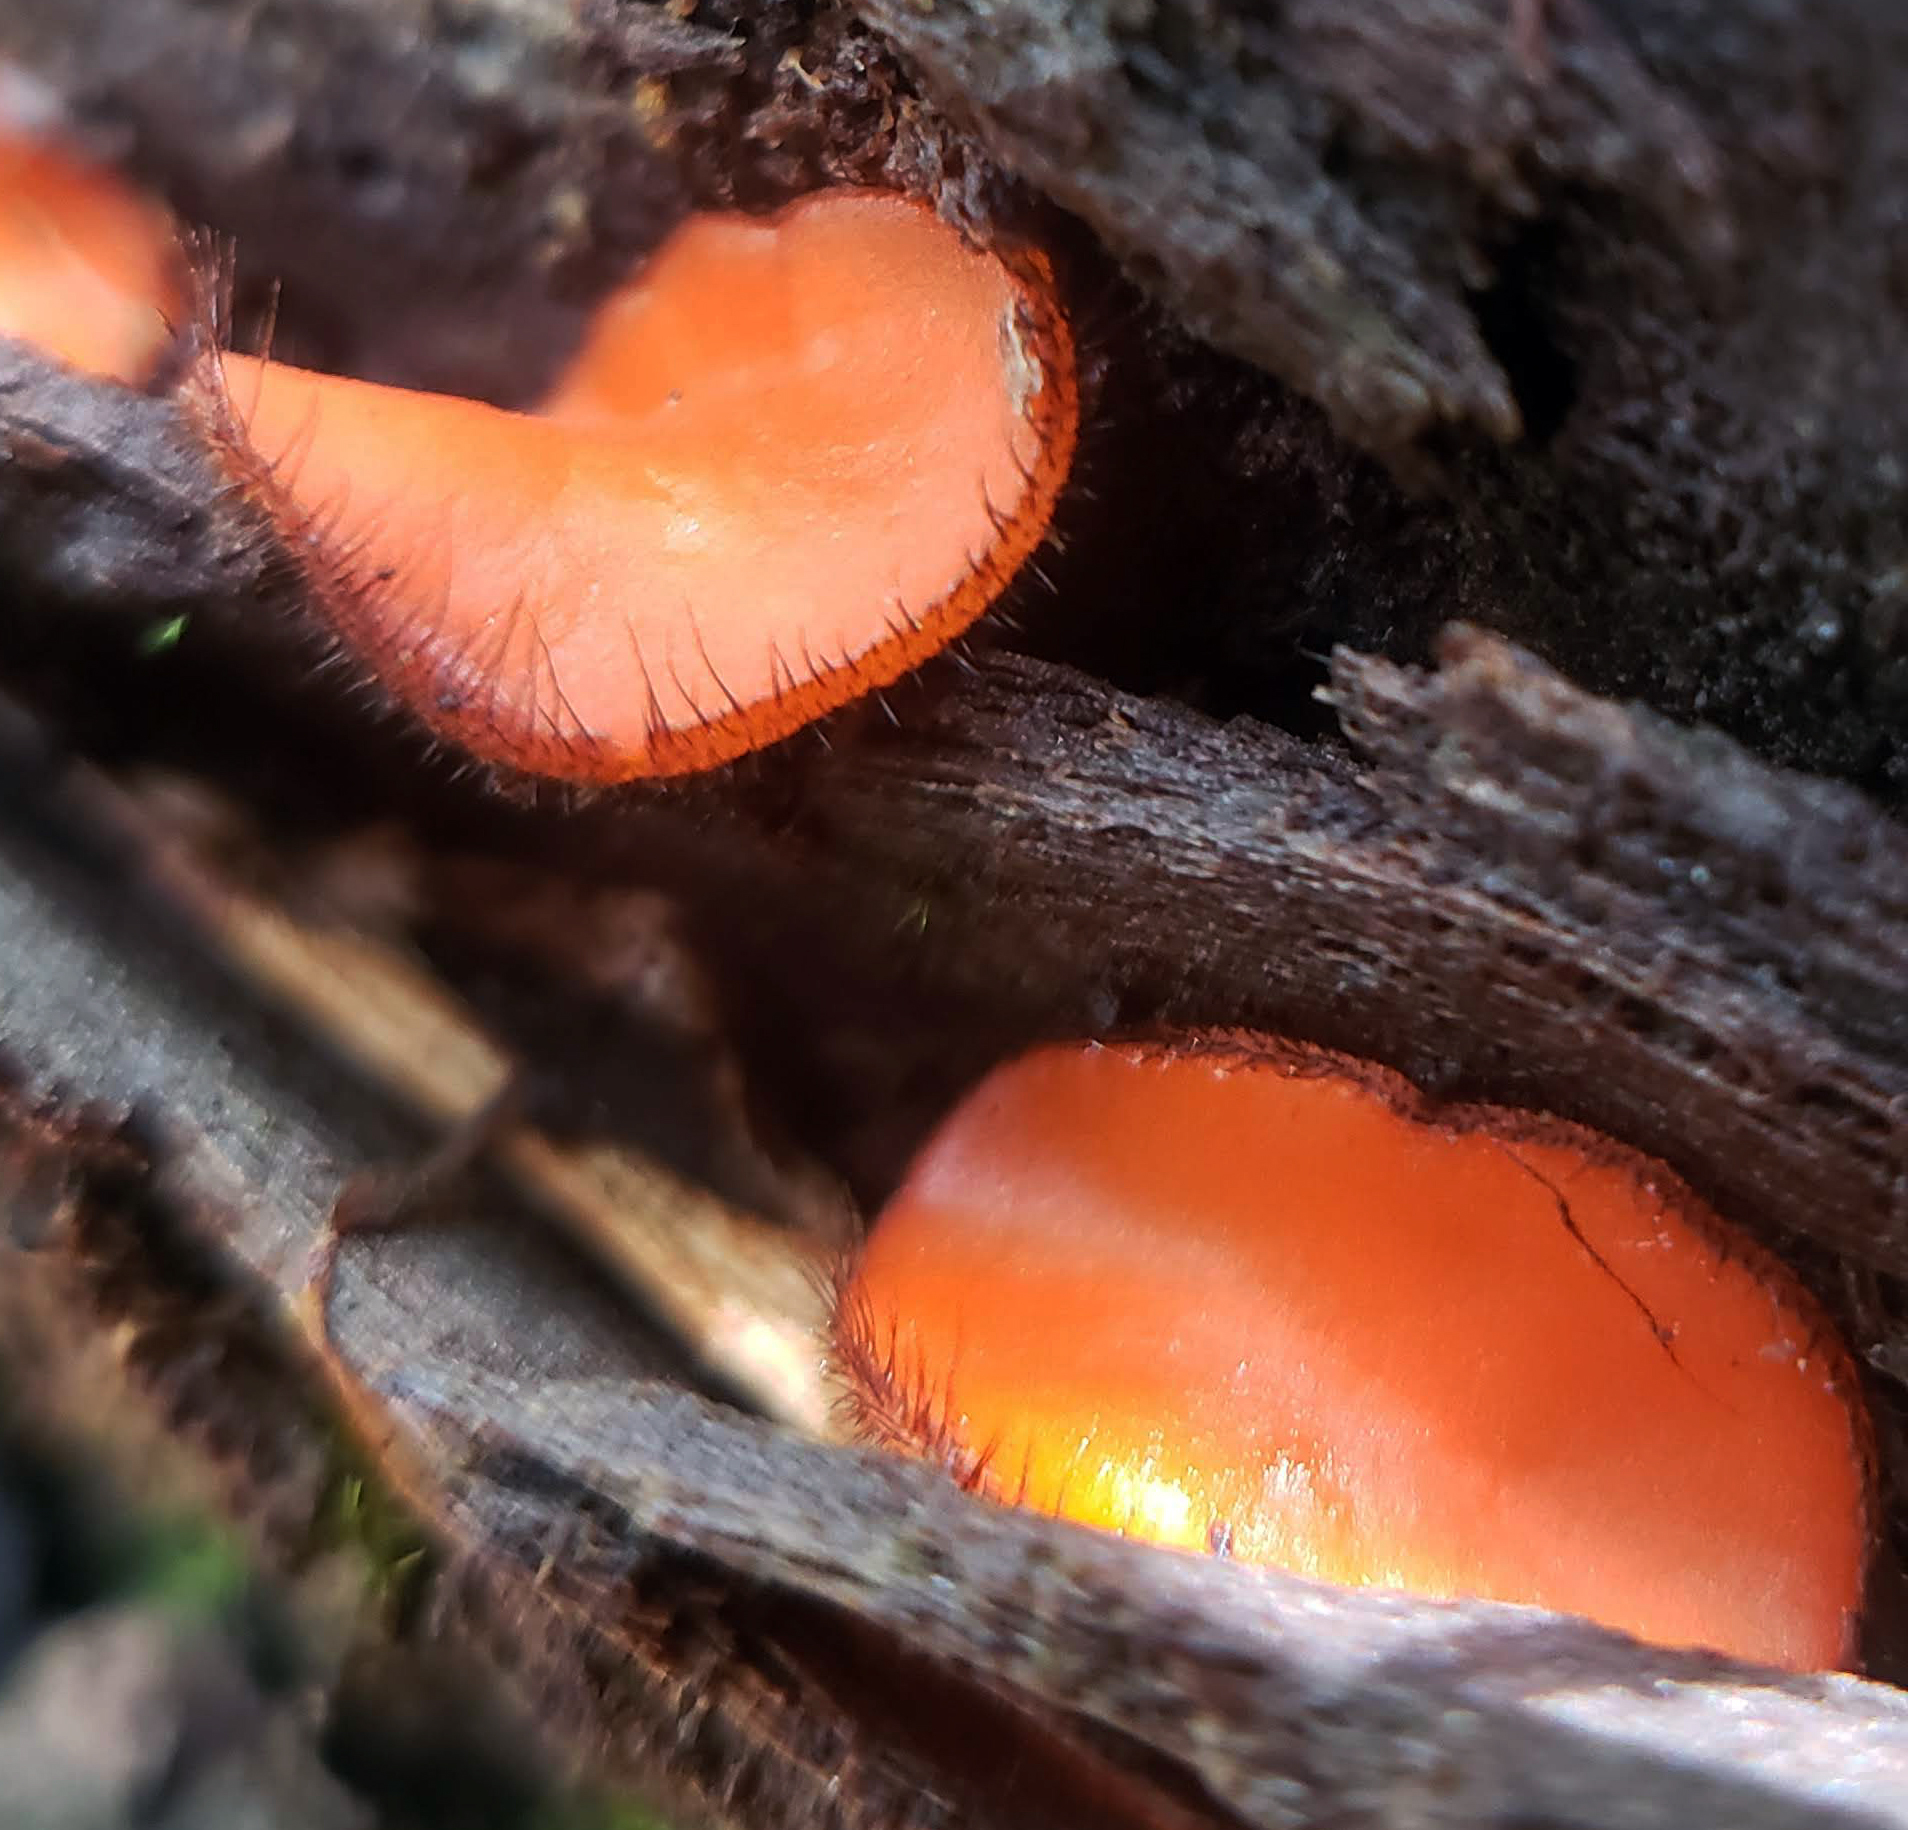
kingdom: Fungi
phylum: Ascomycota
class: Pezizomycetes
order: Pezizales
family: Pyronemataceae
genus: Scutellinia
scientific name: Scutellinia
